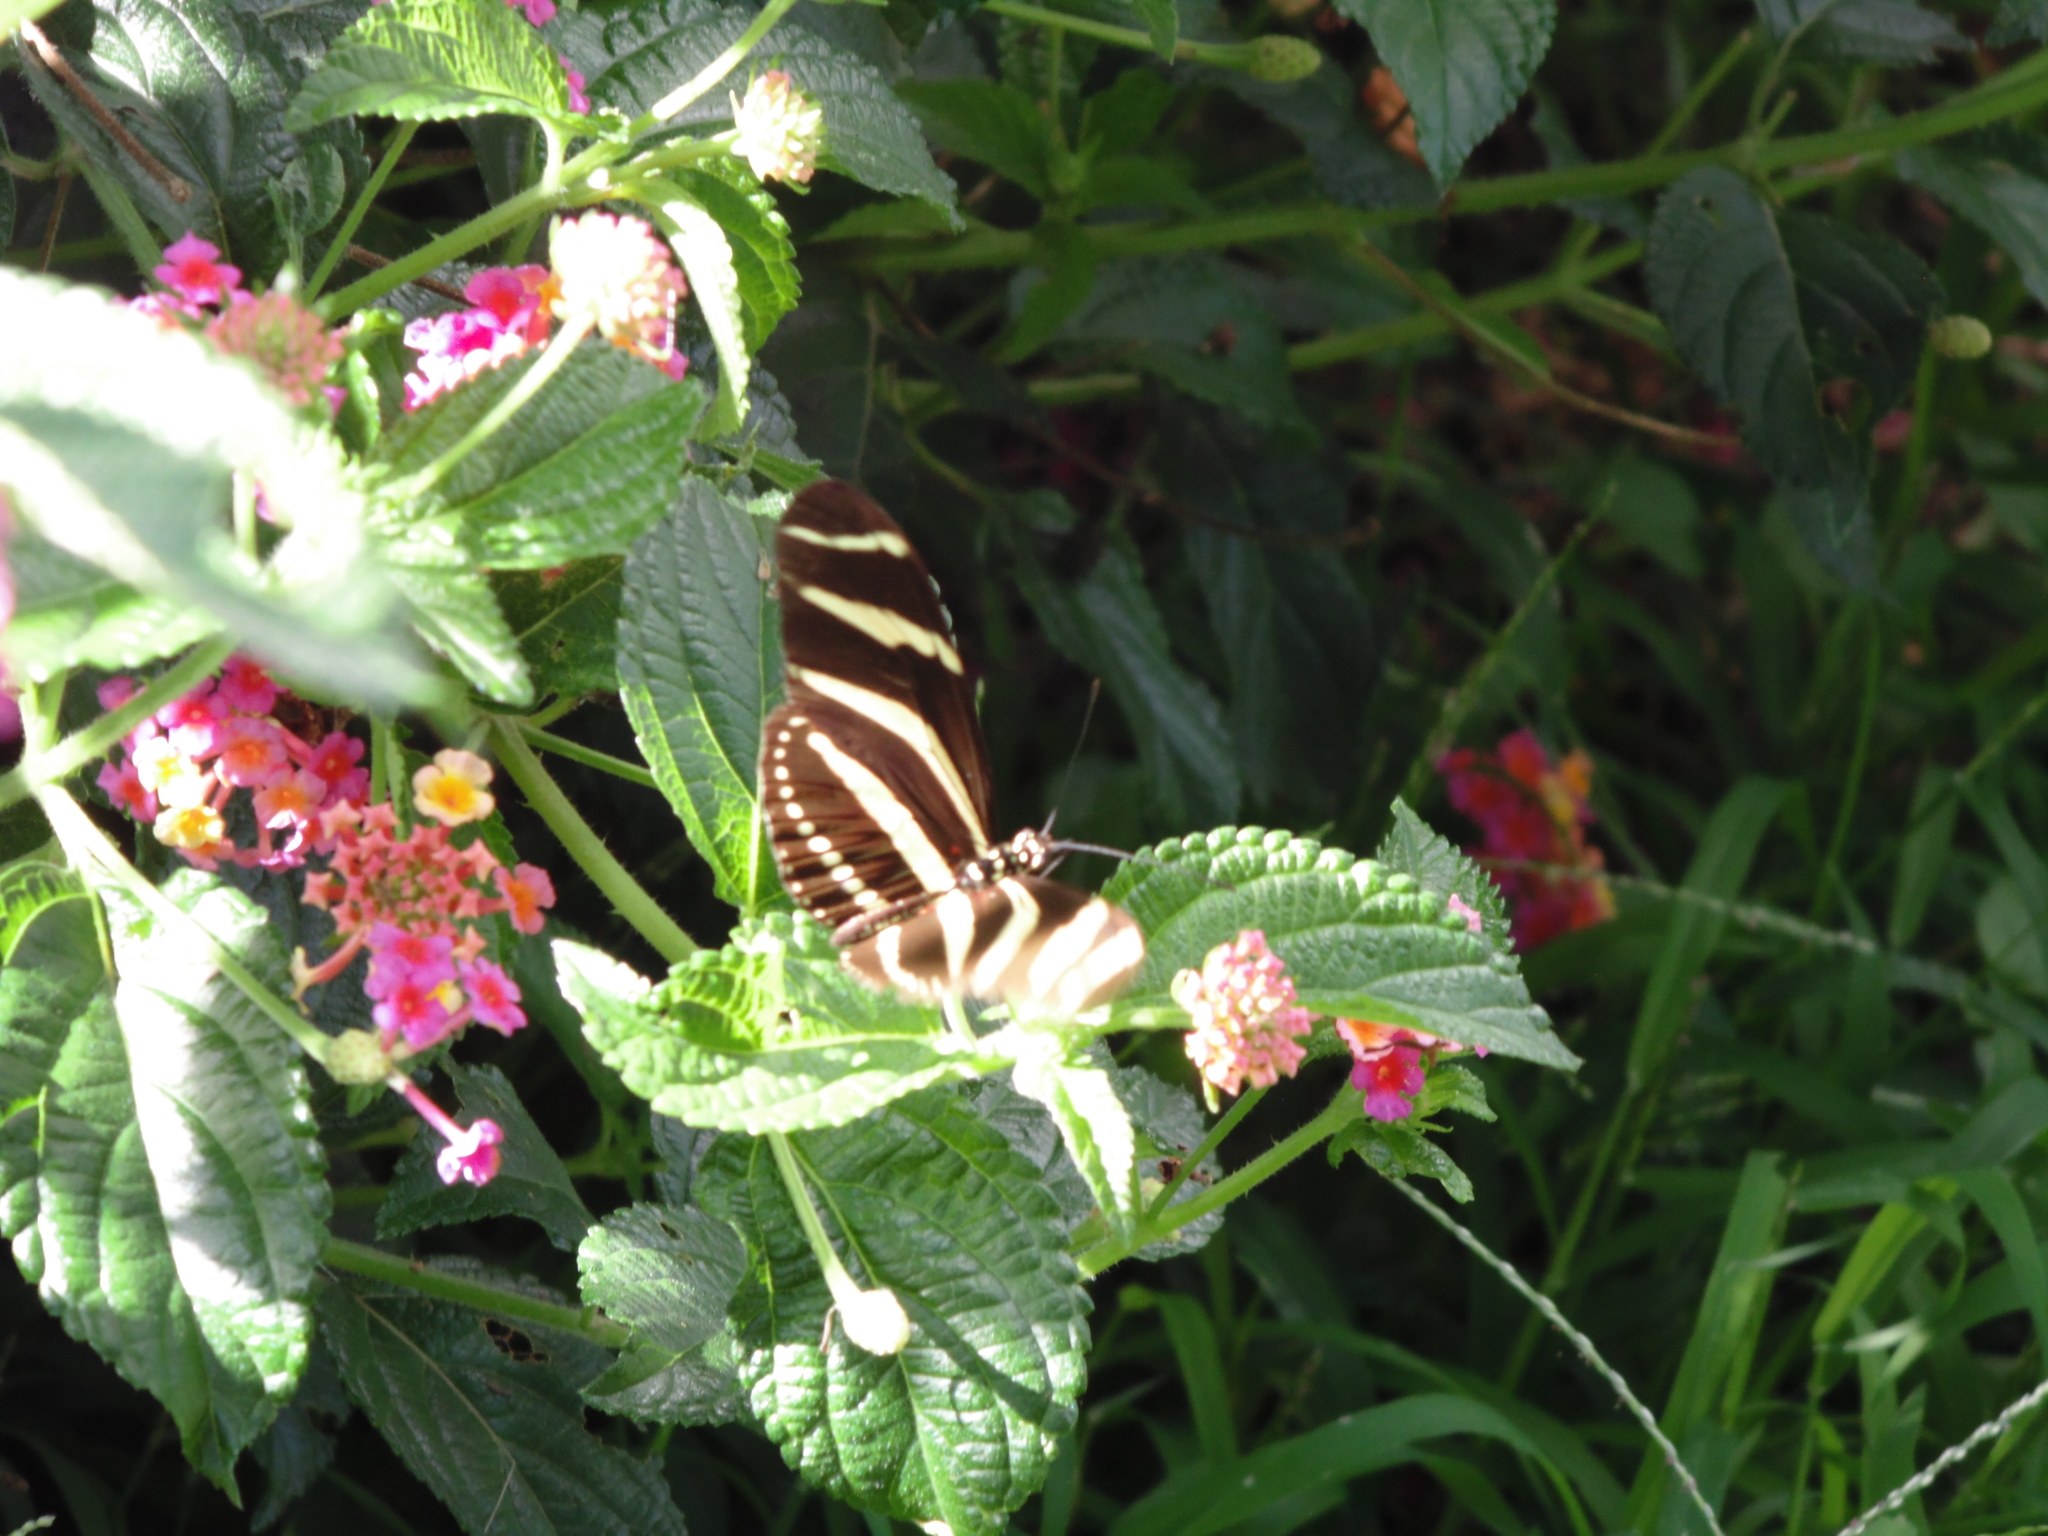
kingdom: Animalia
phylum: Arthropoda
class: Insecta
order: Lepidoptera
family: Nymphalidae
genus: Heliconius
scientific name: Heliconius charithonia
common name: Zebra long wing
